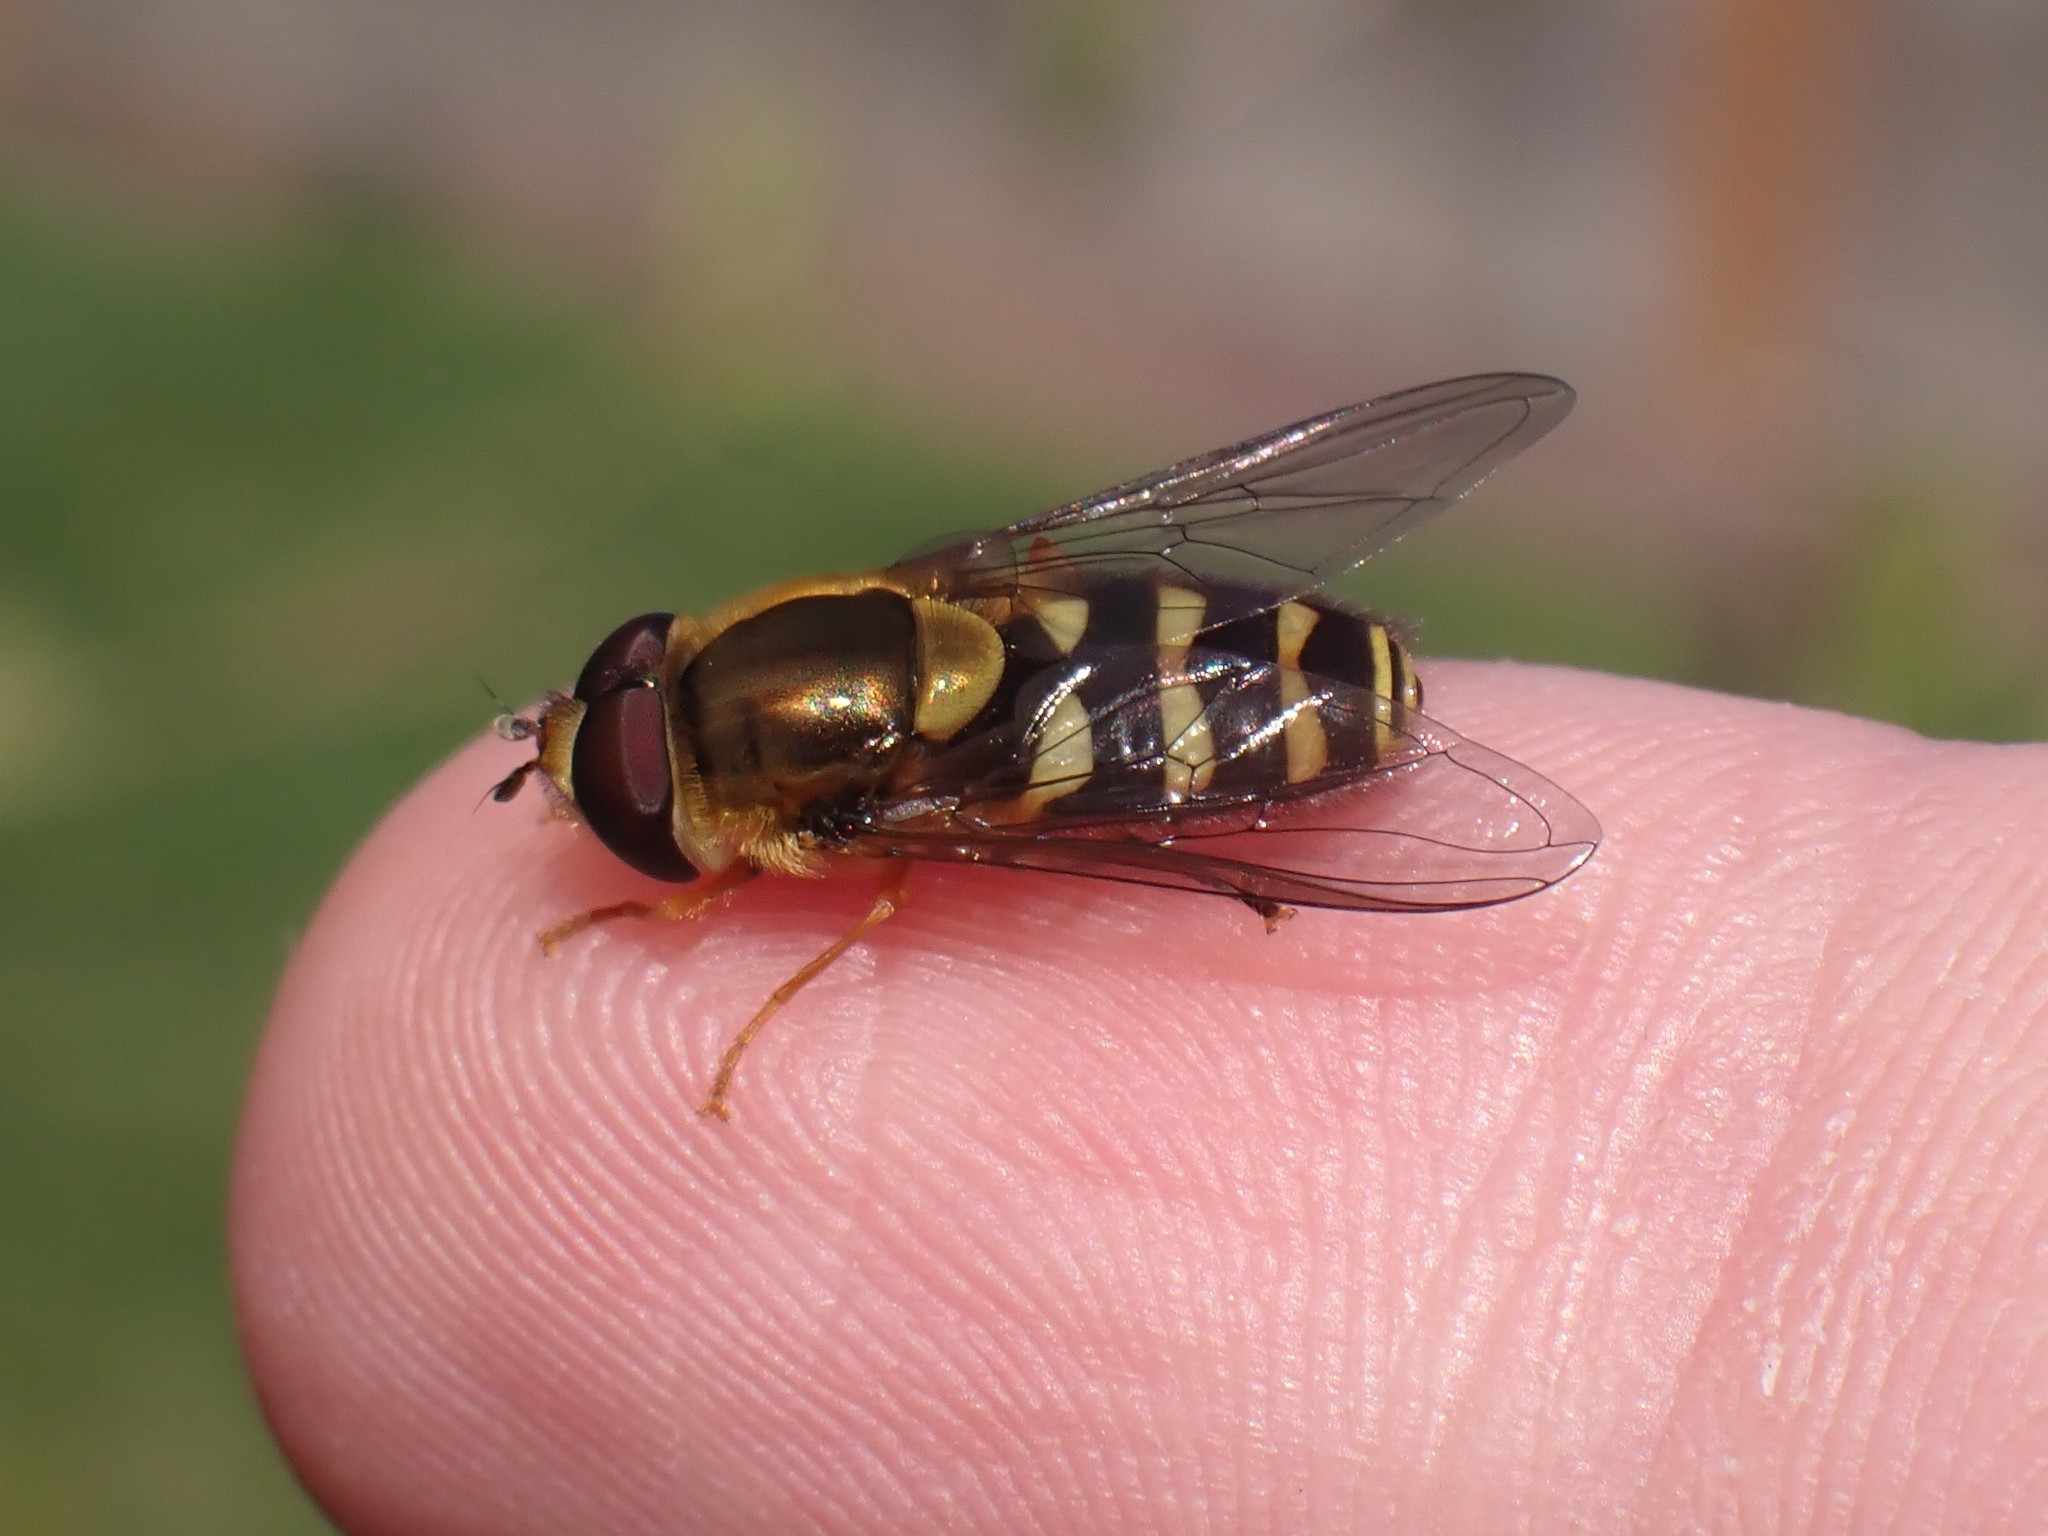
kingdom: Animalia
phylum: Arthropoda
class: Insecta
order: Diptera
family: Syrphidae
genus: Syrphus
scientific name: Syrphus opinator
